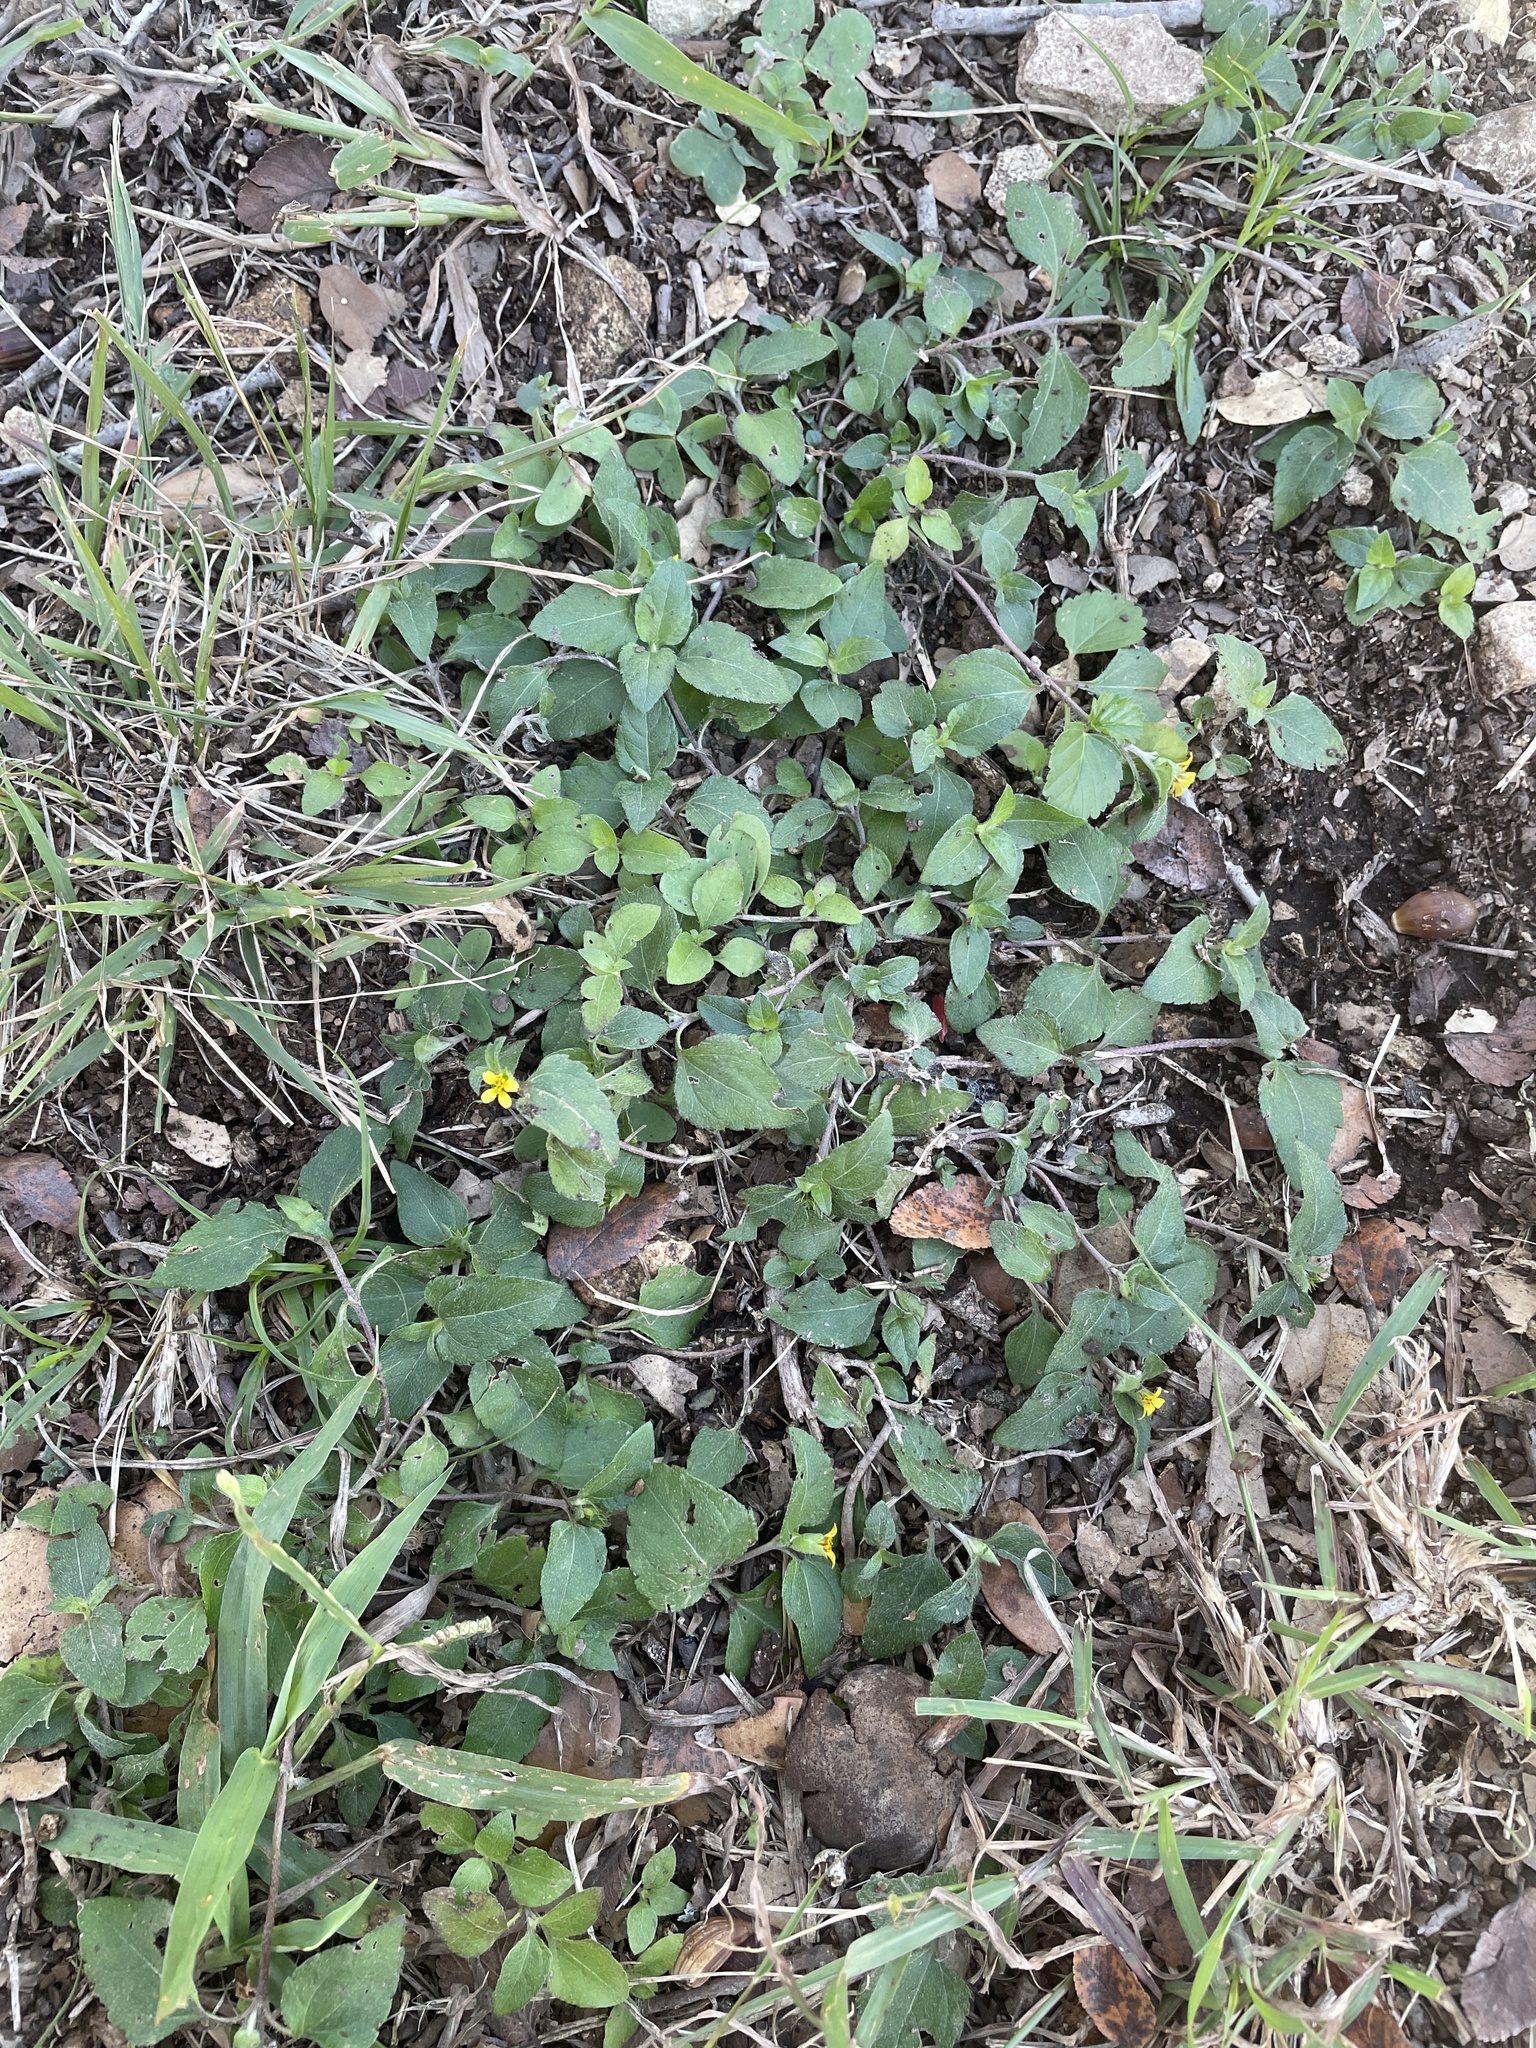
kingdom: Plantae
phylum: Tracheophyta
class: Magnoliopsida
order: Asterales
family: Asteraceae
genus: Calyptocarpus
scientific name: Calyptocarpus vialis
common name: Straggler daisy
